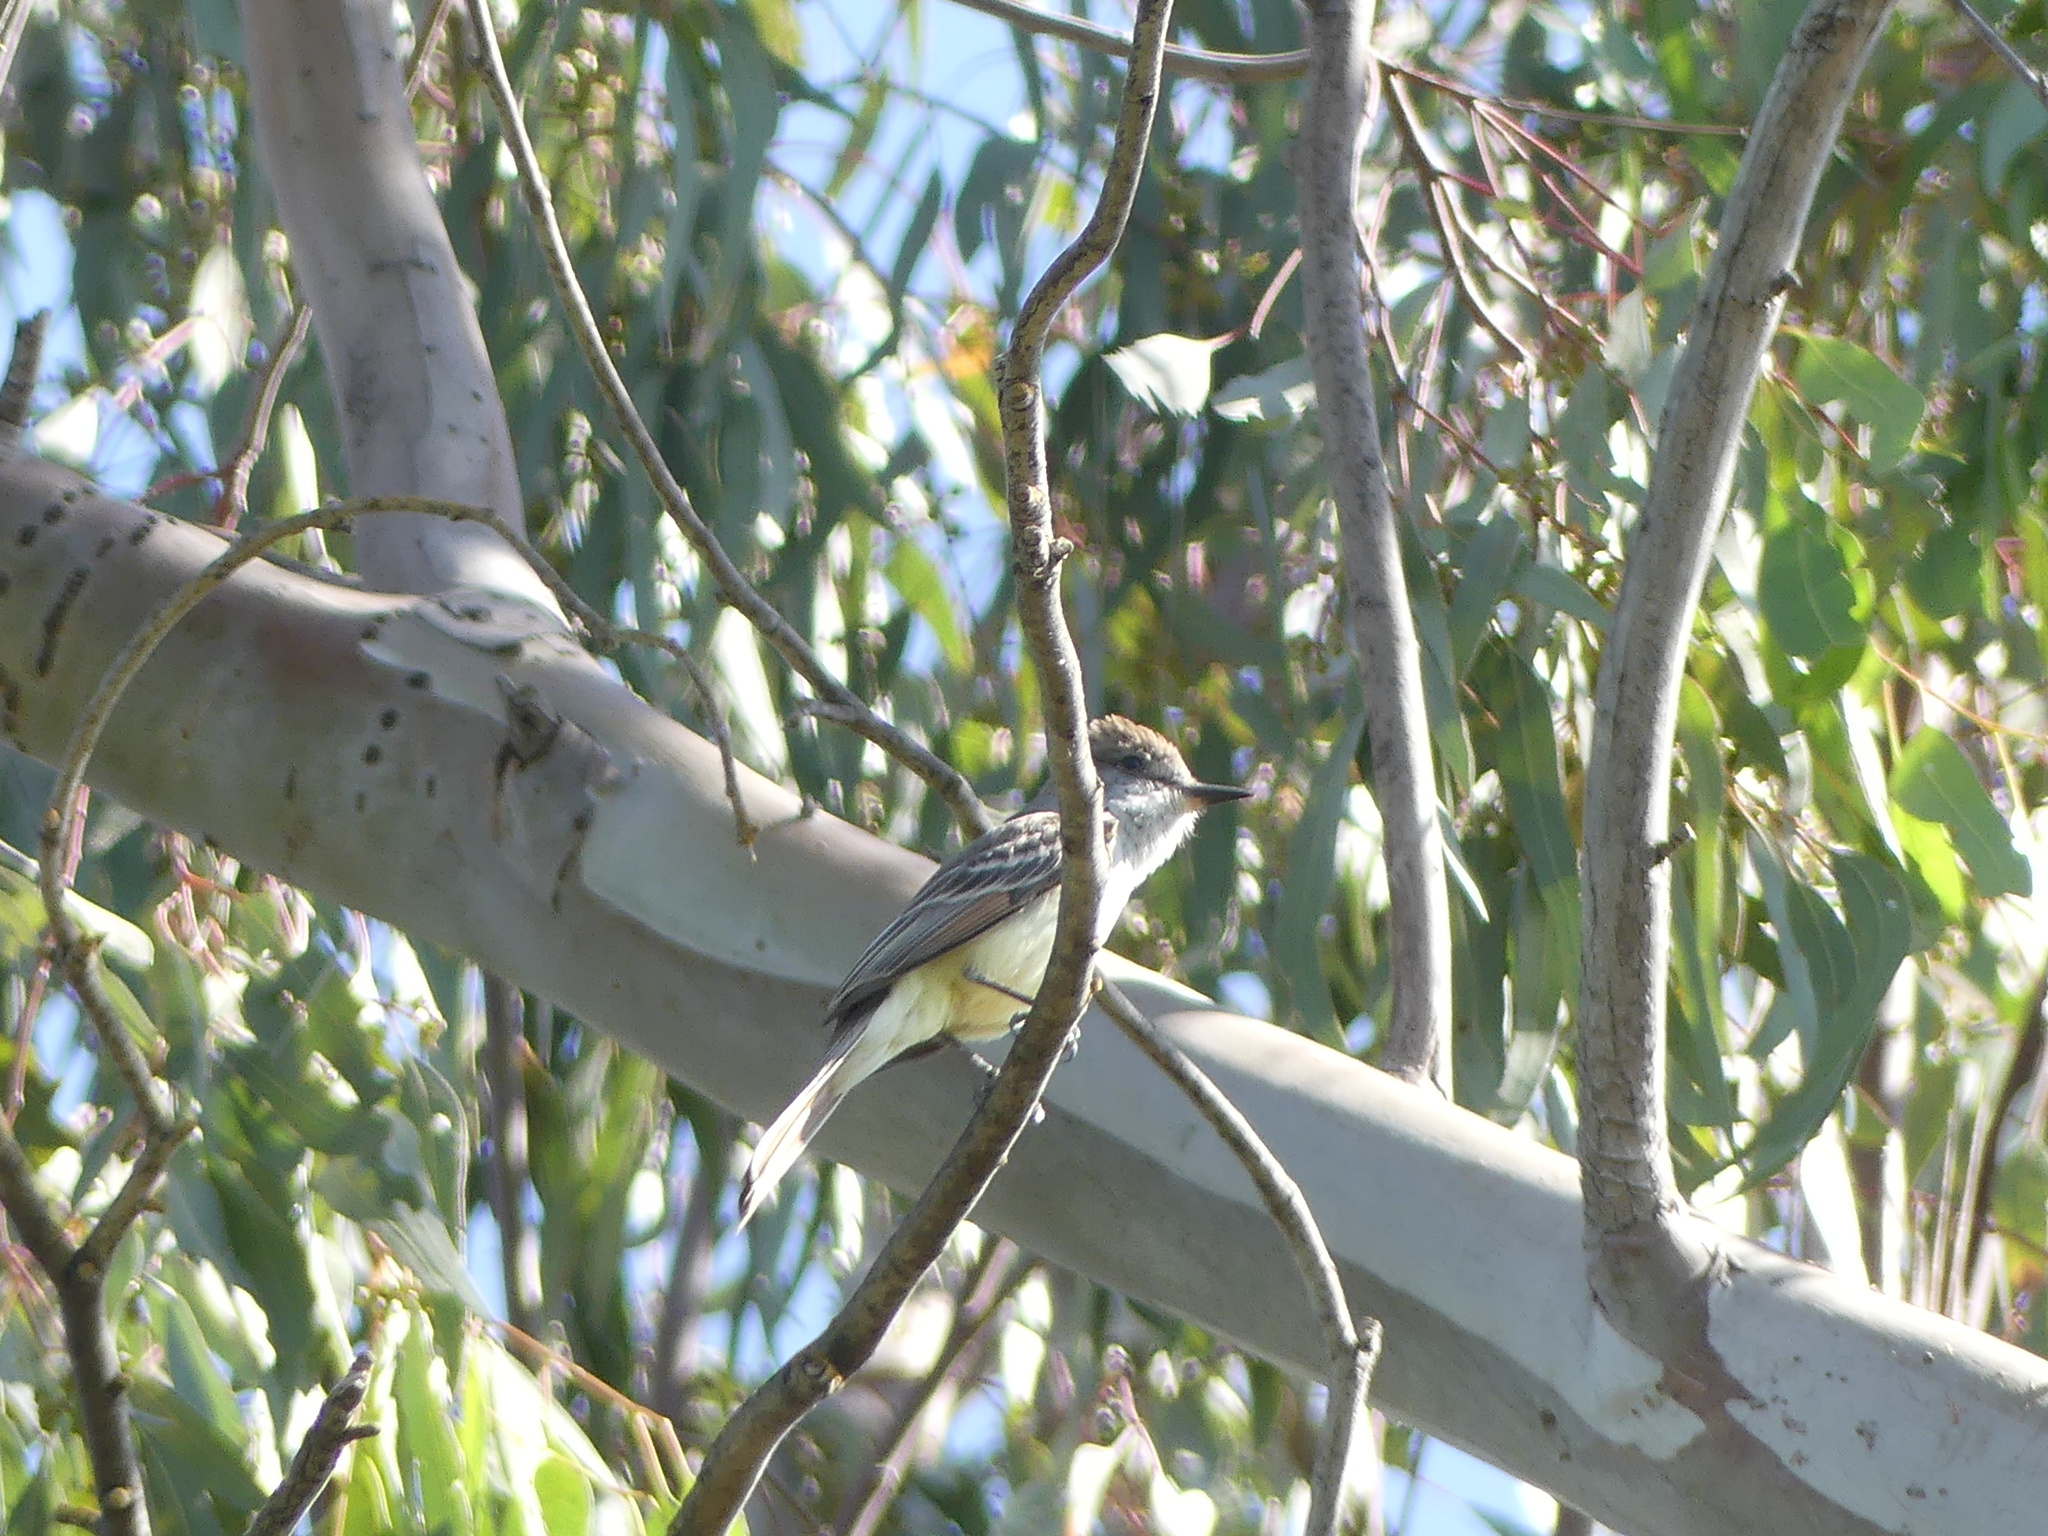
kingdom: Animalia
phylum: Chordata
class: Aves
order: Passeriformes
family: Tyrannidae
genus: Myiarchus
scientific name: Myiarchus cinerascens
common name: Ash-throated flycatcher
